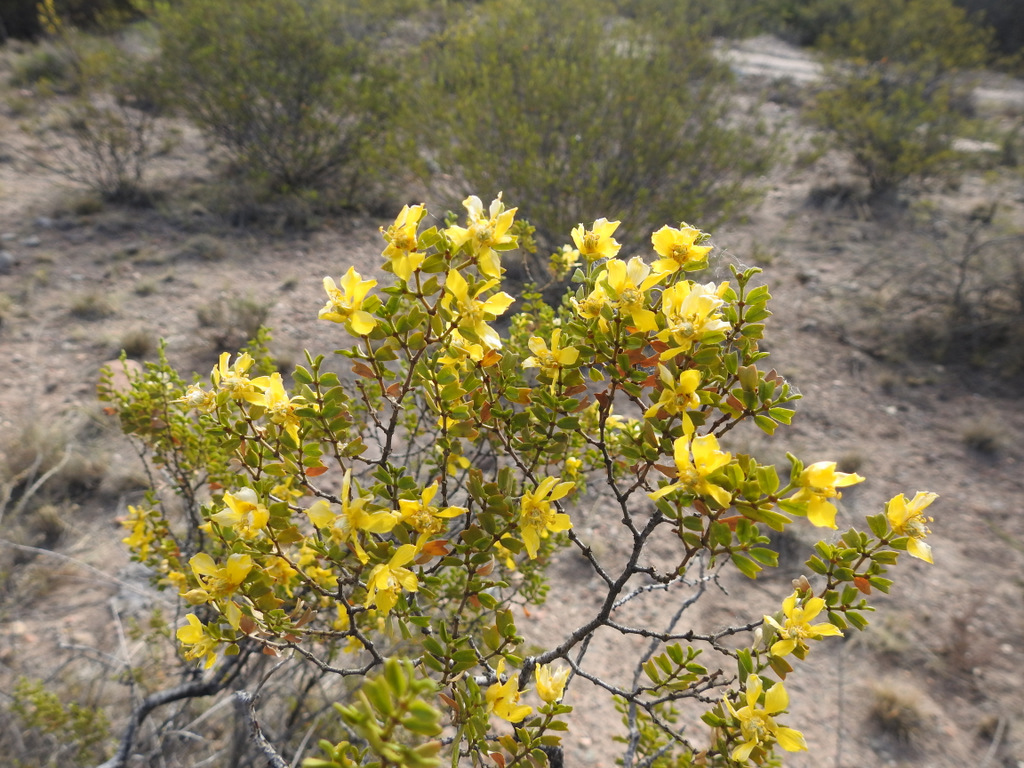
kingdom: Plantae
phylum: Tracheophyta
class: Magnoliopsida
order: Zygophyllales
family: Zygophyllaceae
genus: Larrea
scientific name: Larrea cuneifolia
